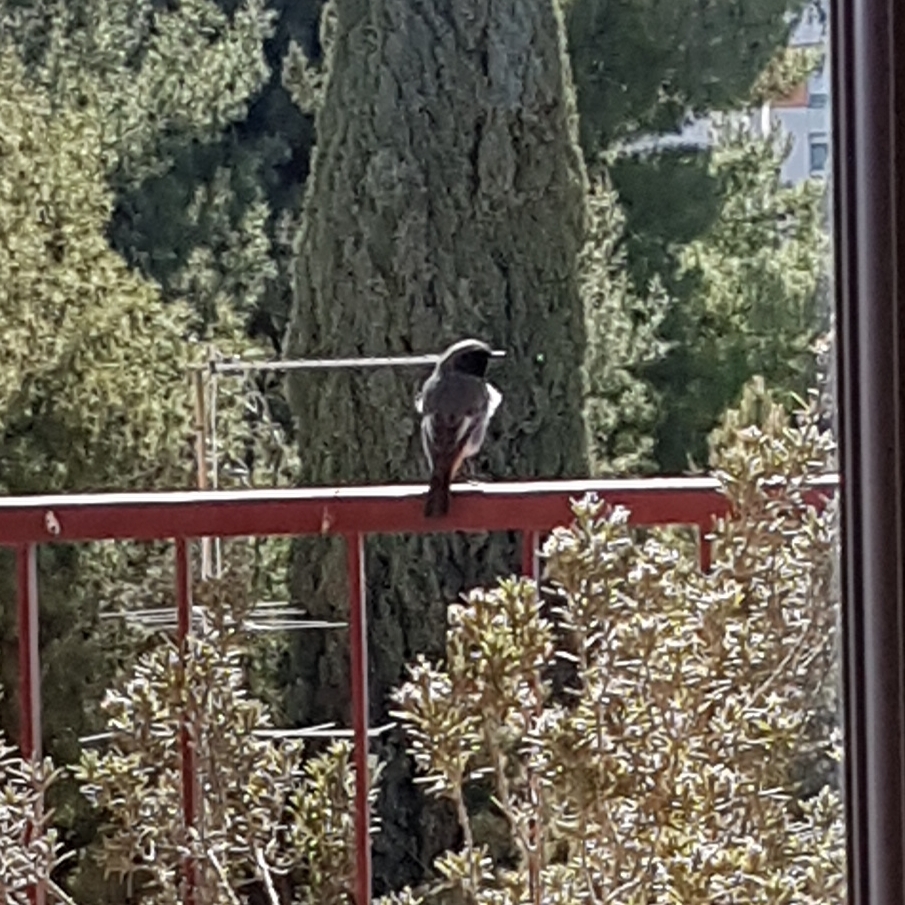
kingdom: Animalia
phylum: Chordata
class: Aves
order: Passeriformes
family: Muscicapidae
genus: Phoenicurus
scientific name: Phoenicurus ochruros
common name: Black redstart
